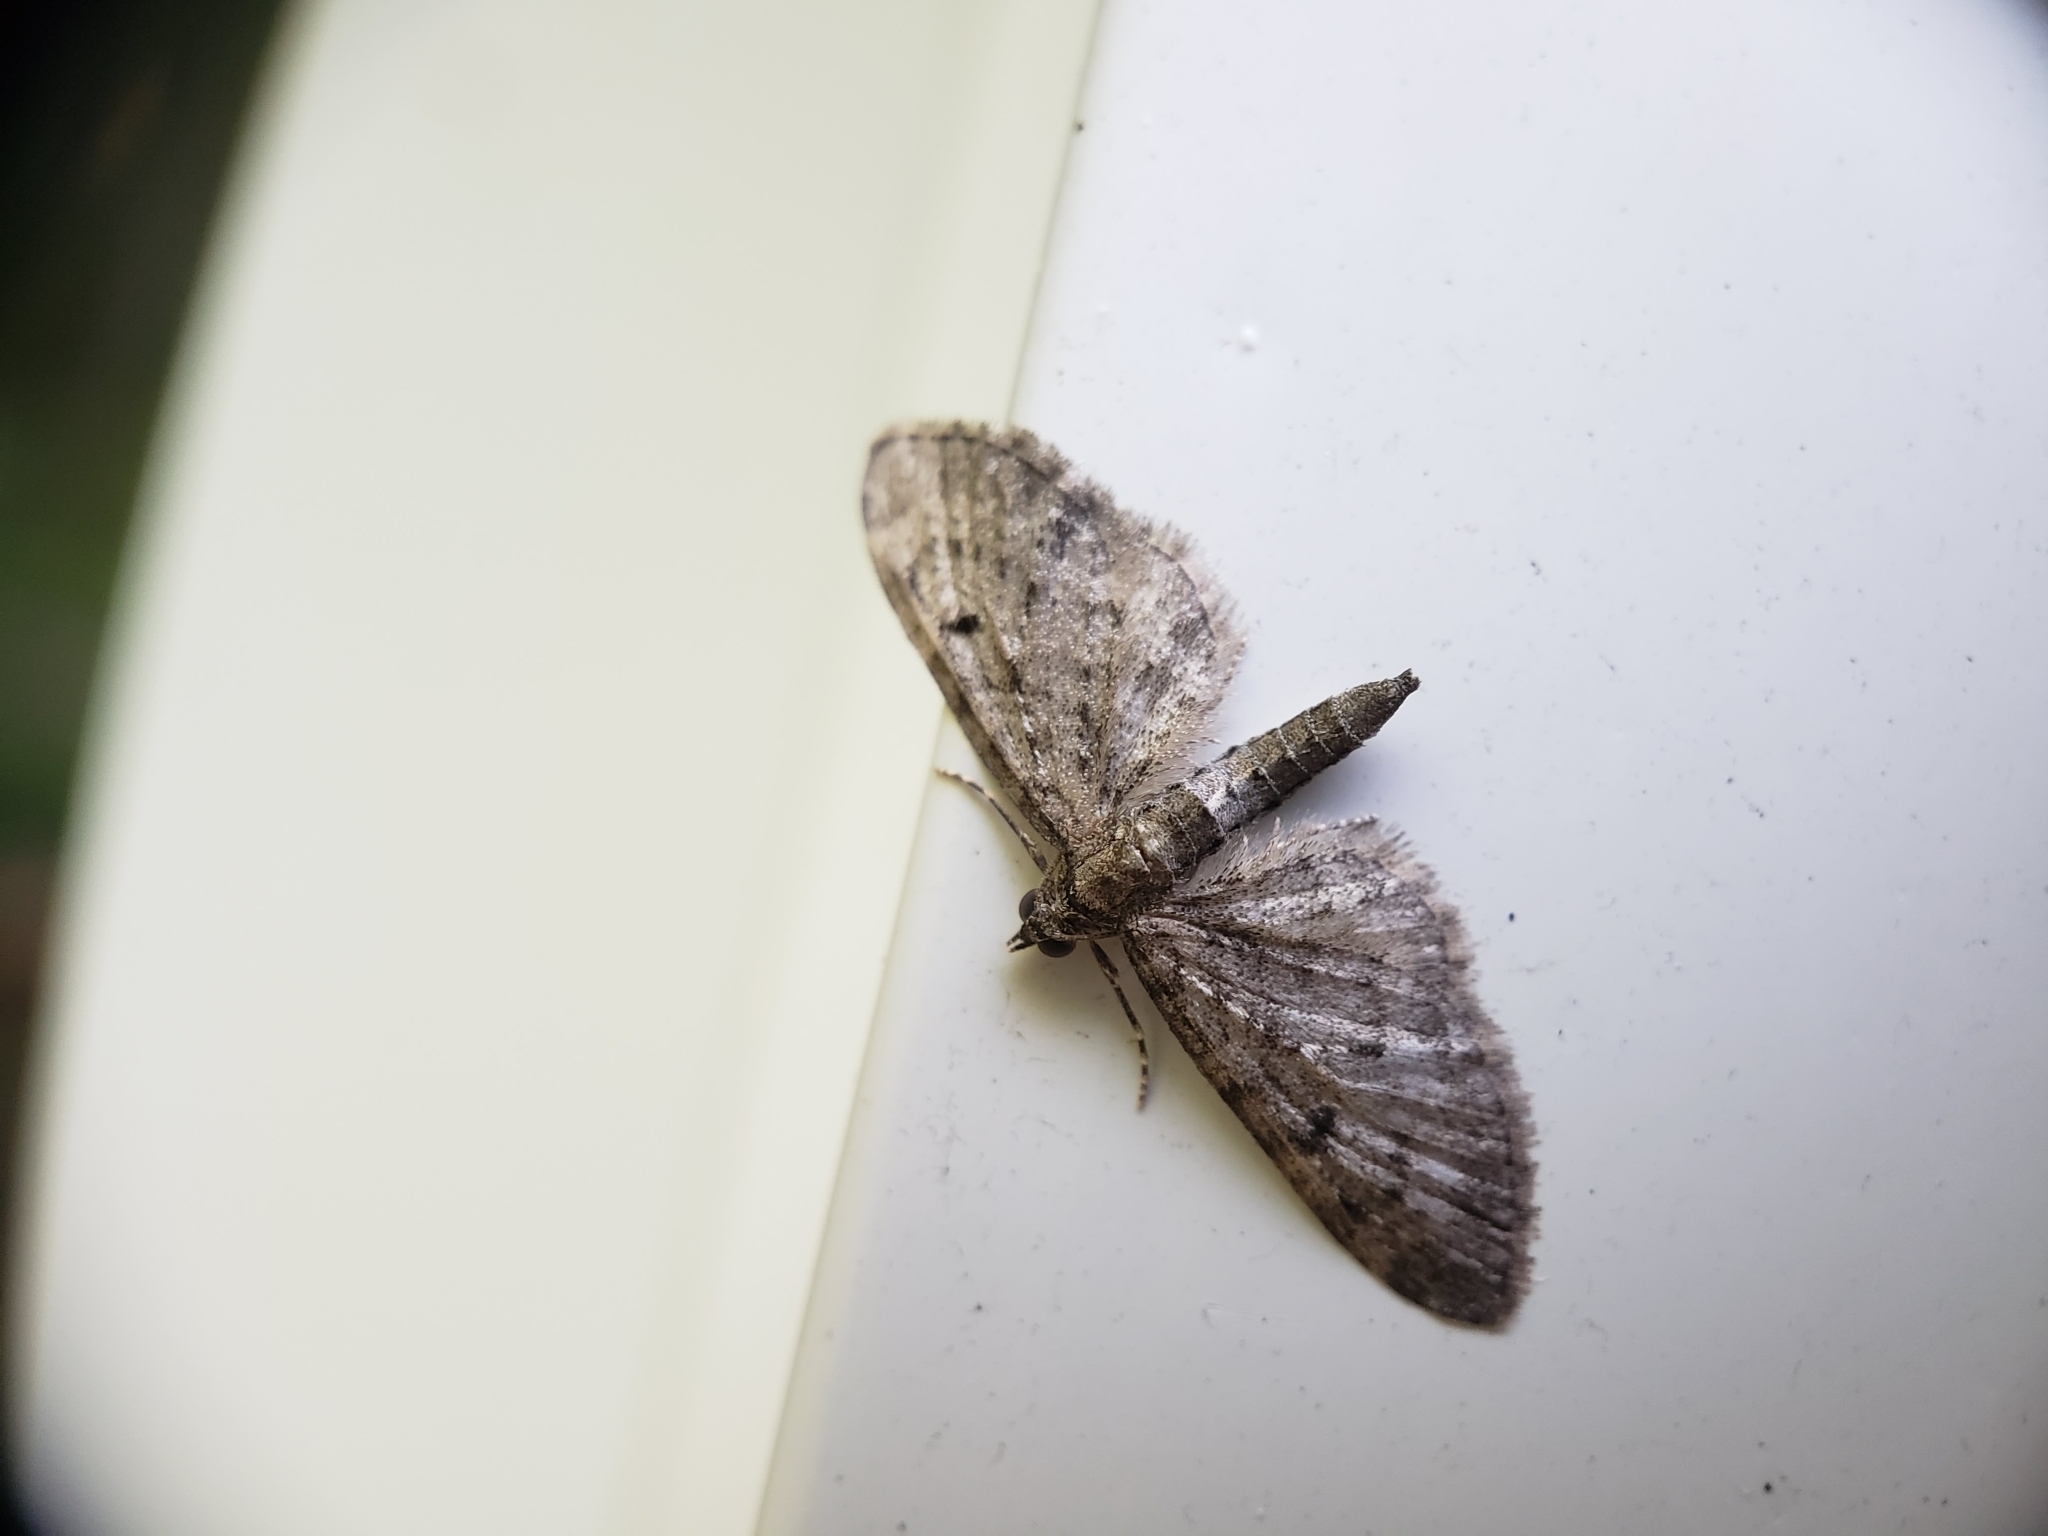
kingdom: Animalia
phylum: Arthropoda
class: Insecta
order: Lepidoptera
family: Geometridae
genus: Eupithecia
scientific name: Eupithecia miserulata
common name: Common eupithecia
